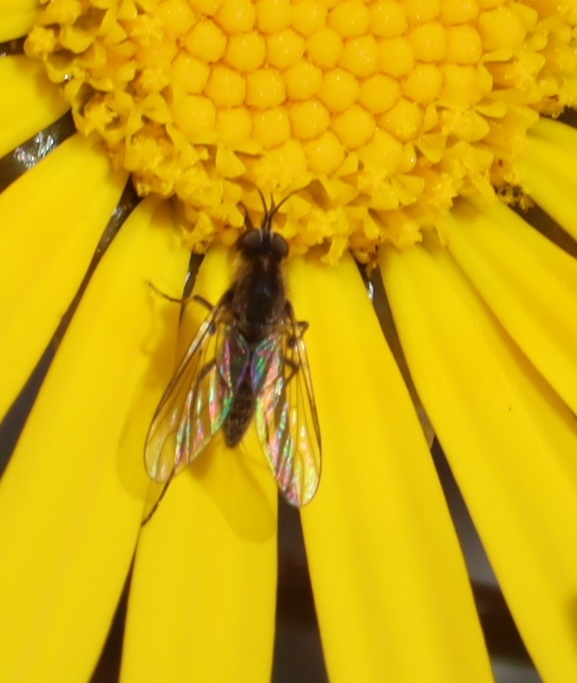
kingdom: Plantae
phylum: Tracheophyta
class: Magnoliopsida
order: Asterales
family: Asteraceae
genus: Ursinia
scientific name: Ursinia paleacea
